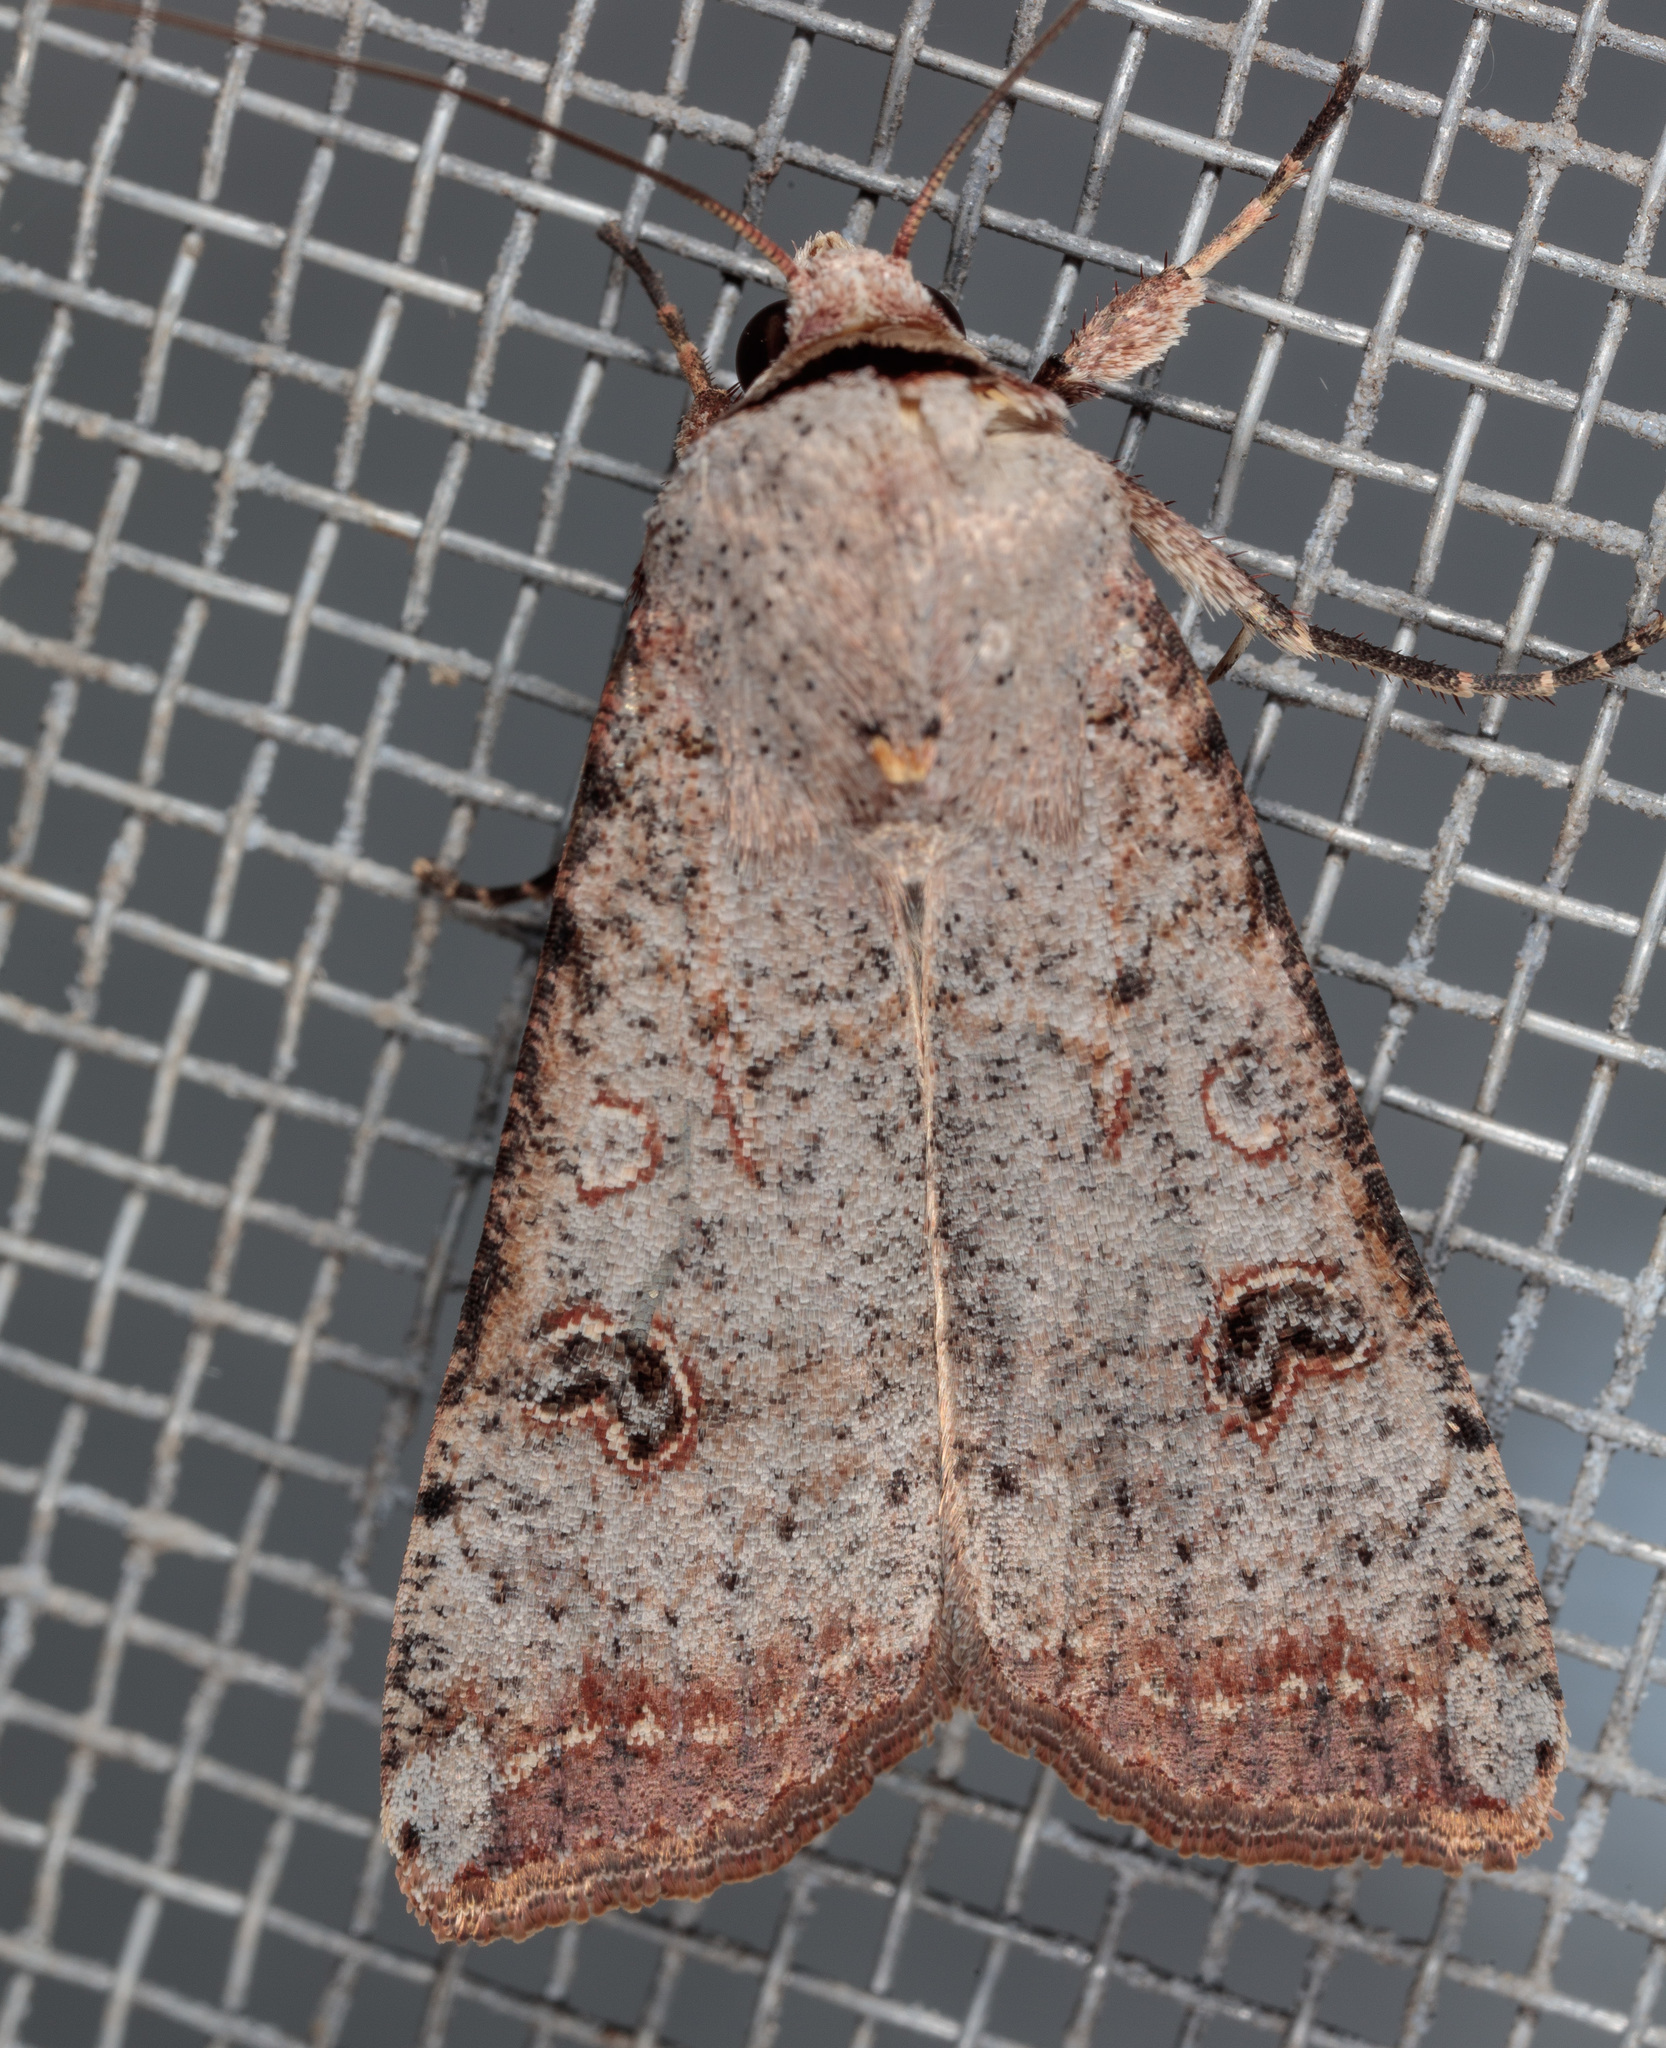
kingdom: Animalia
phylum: Arthropoda
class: Insecta
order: Lepidoptera
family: Noctuidae
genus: Anicla
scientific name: Anicla infecta
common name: Green cutworm
